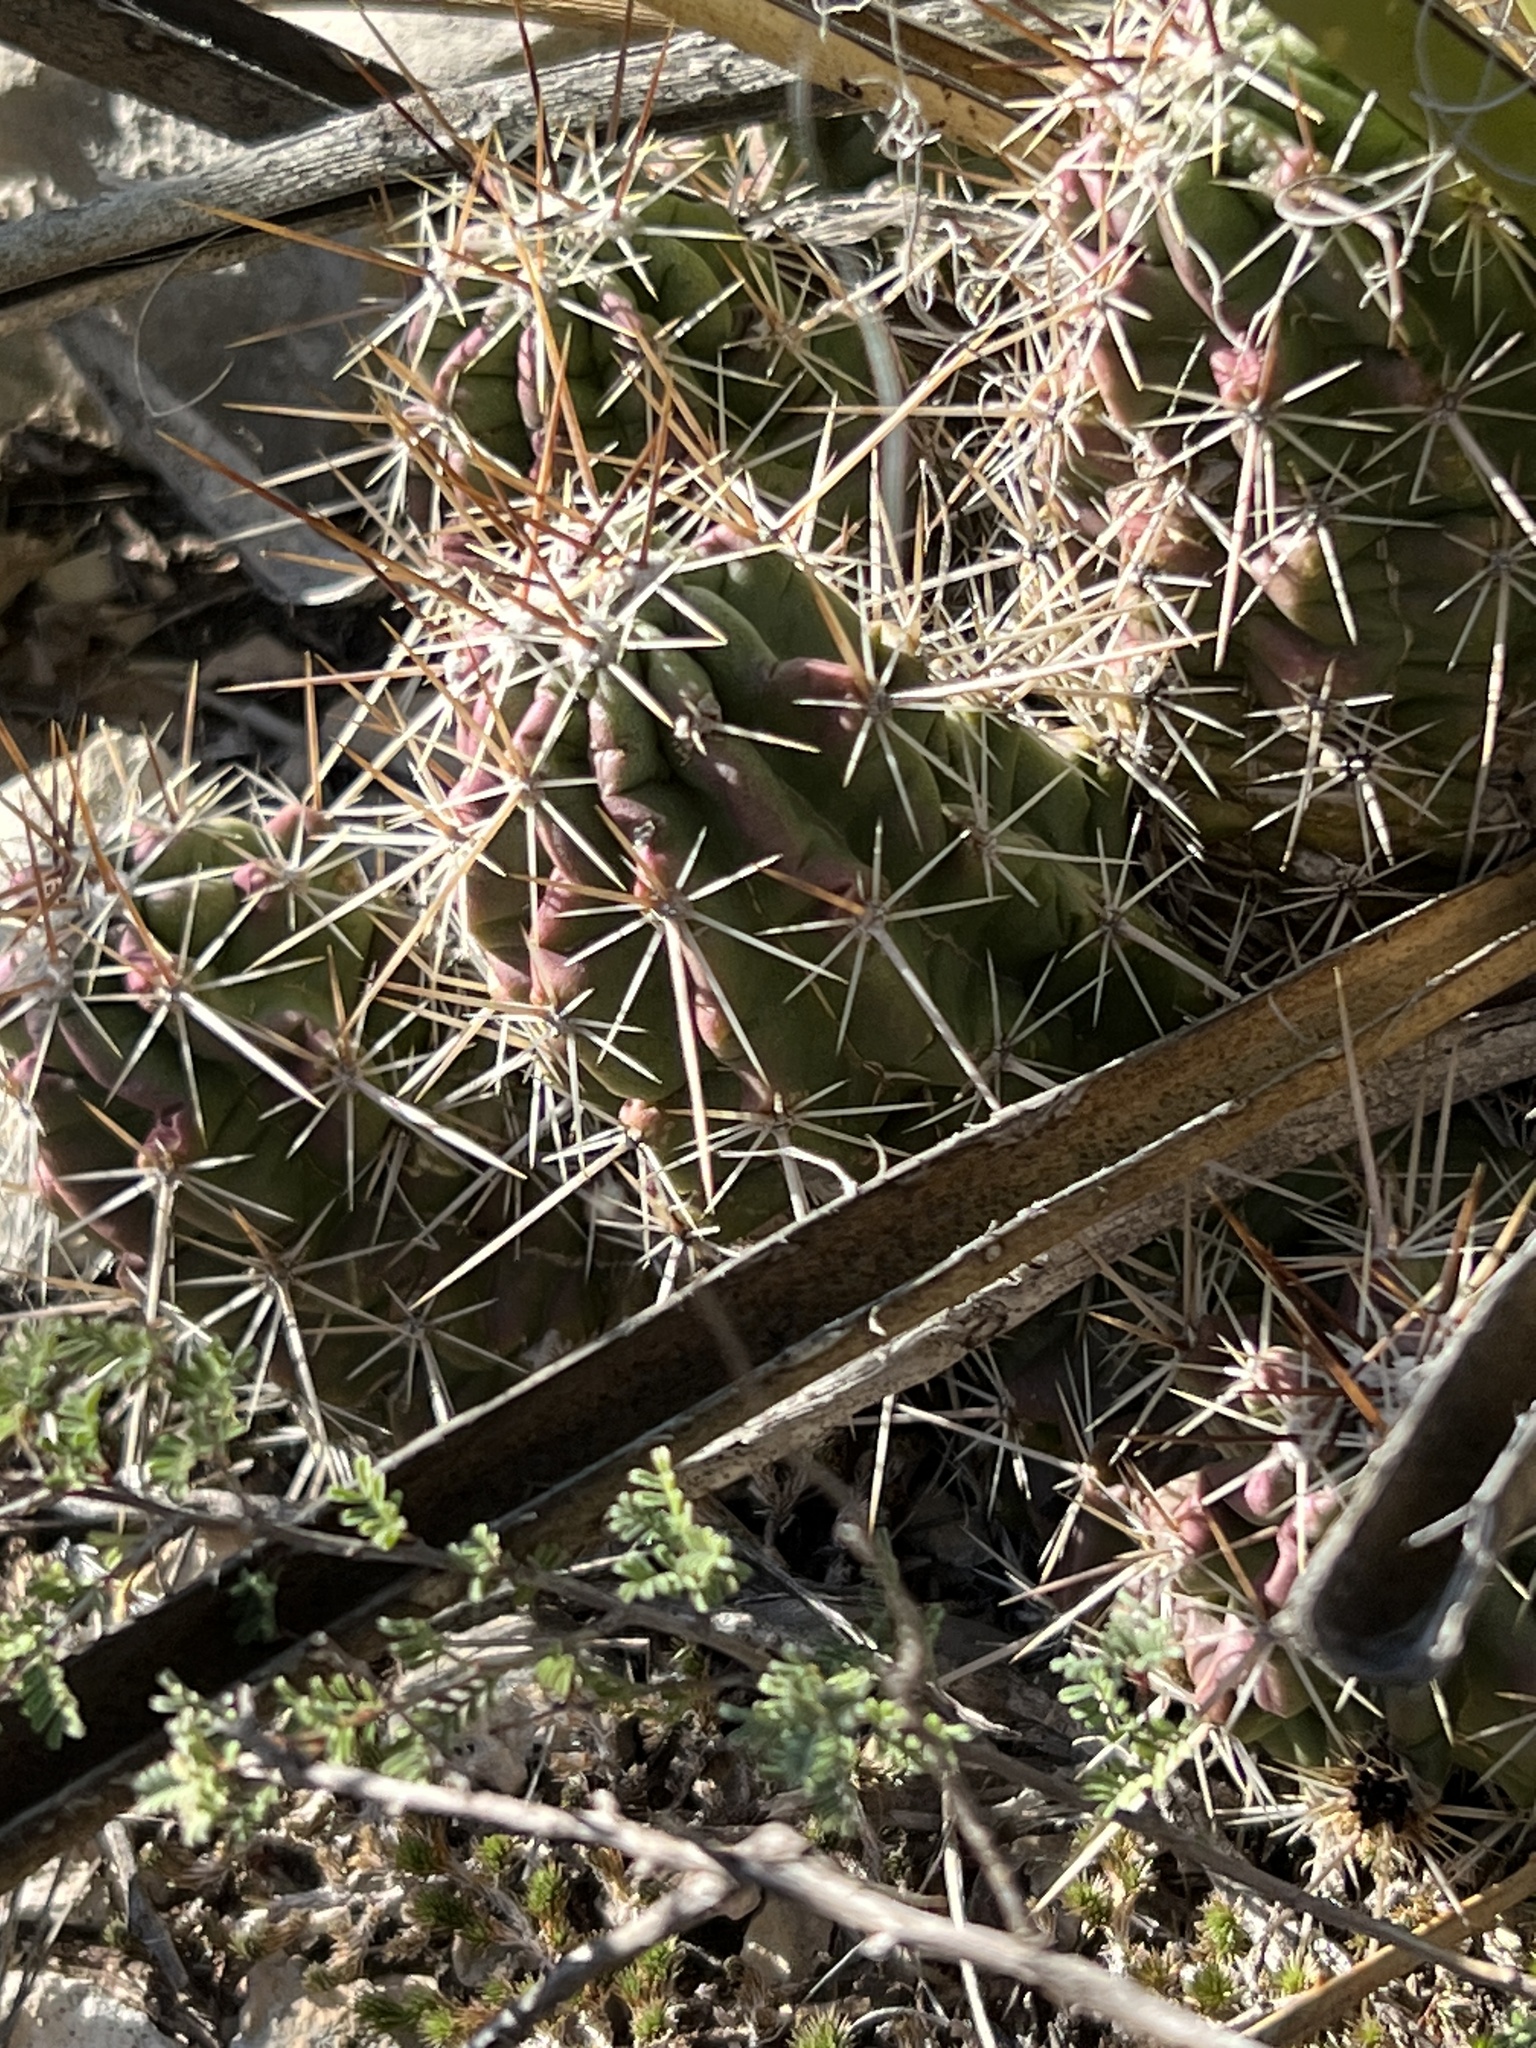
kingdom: Plantae
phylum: Tracheophyta
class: Magnoliopsida
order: Caryophyllales
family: Cactaceae
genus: Echinocereus
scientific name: Echinocereus enneacanthus
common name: Pitaya
